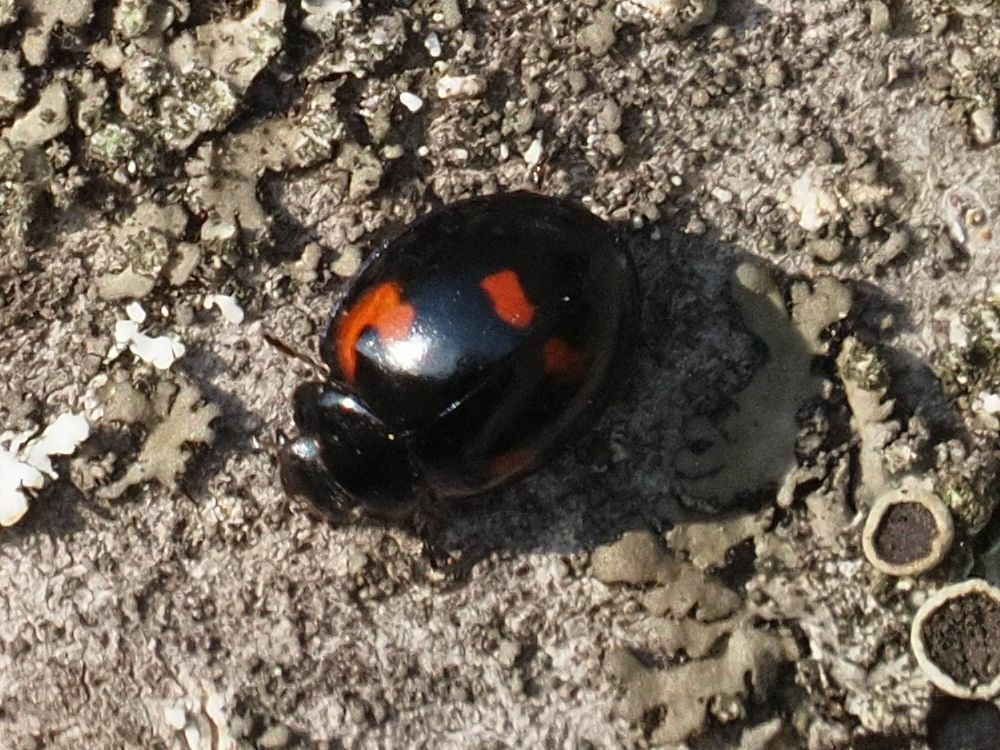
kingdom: Animalia
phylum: Arthropoda
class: Insecta
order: Coleoptera
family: Coccinellidae
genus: Brumus
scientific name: Brumus quadripustulatus
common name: Ladybird beetle
